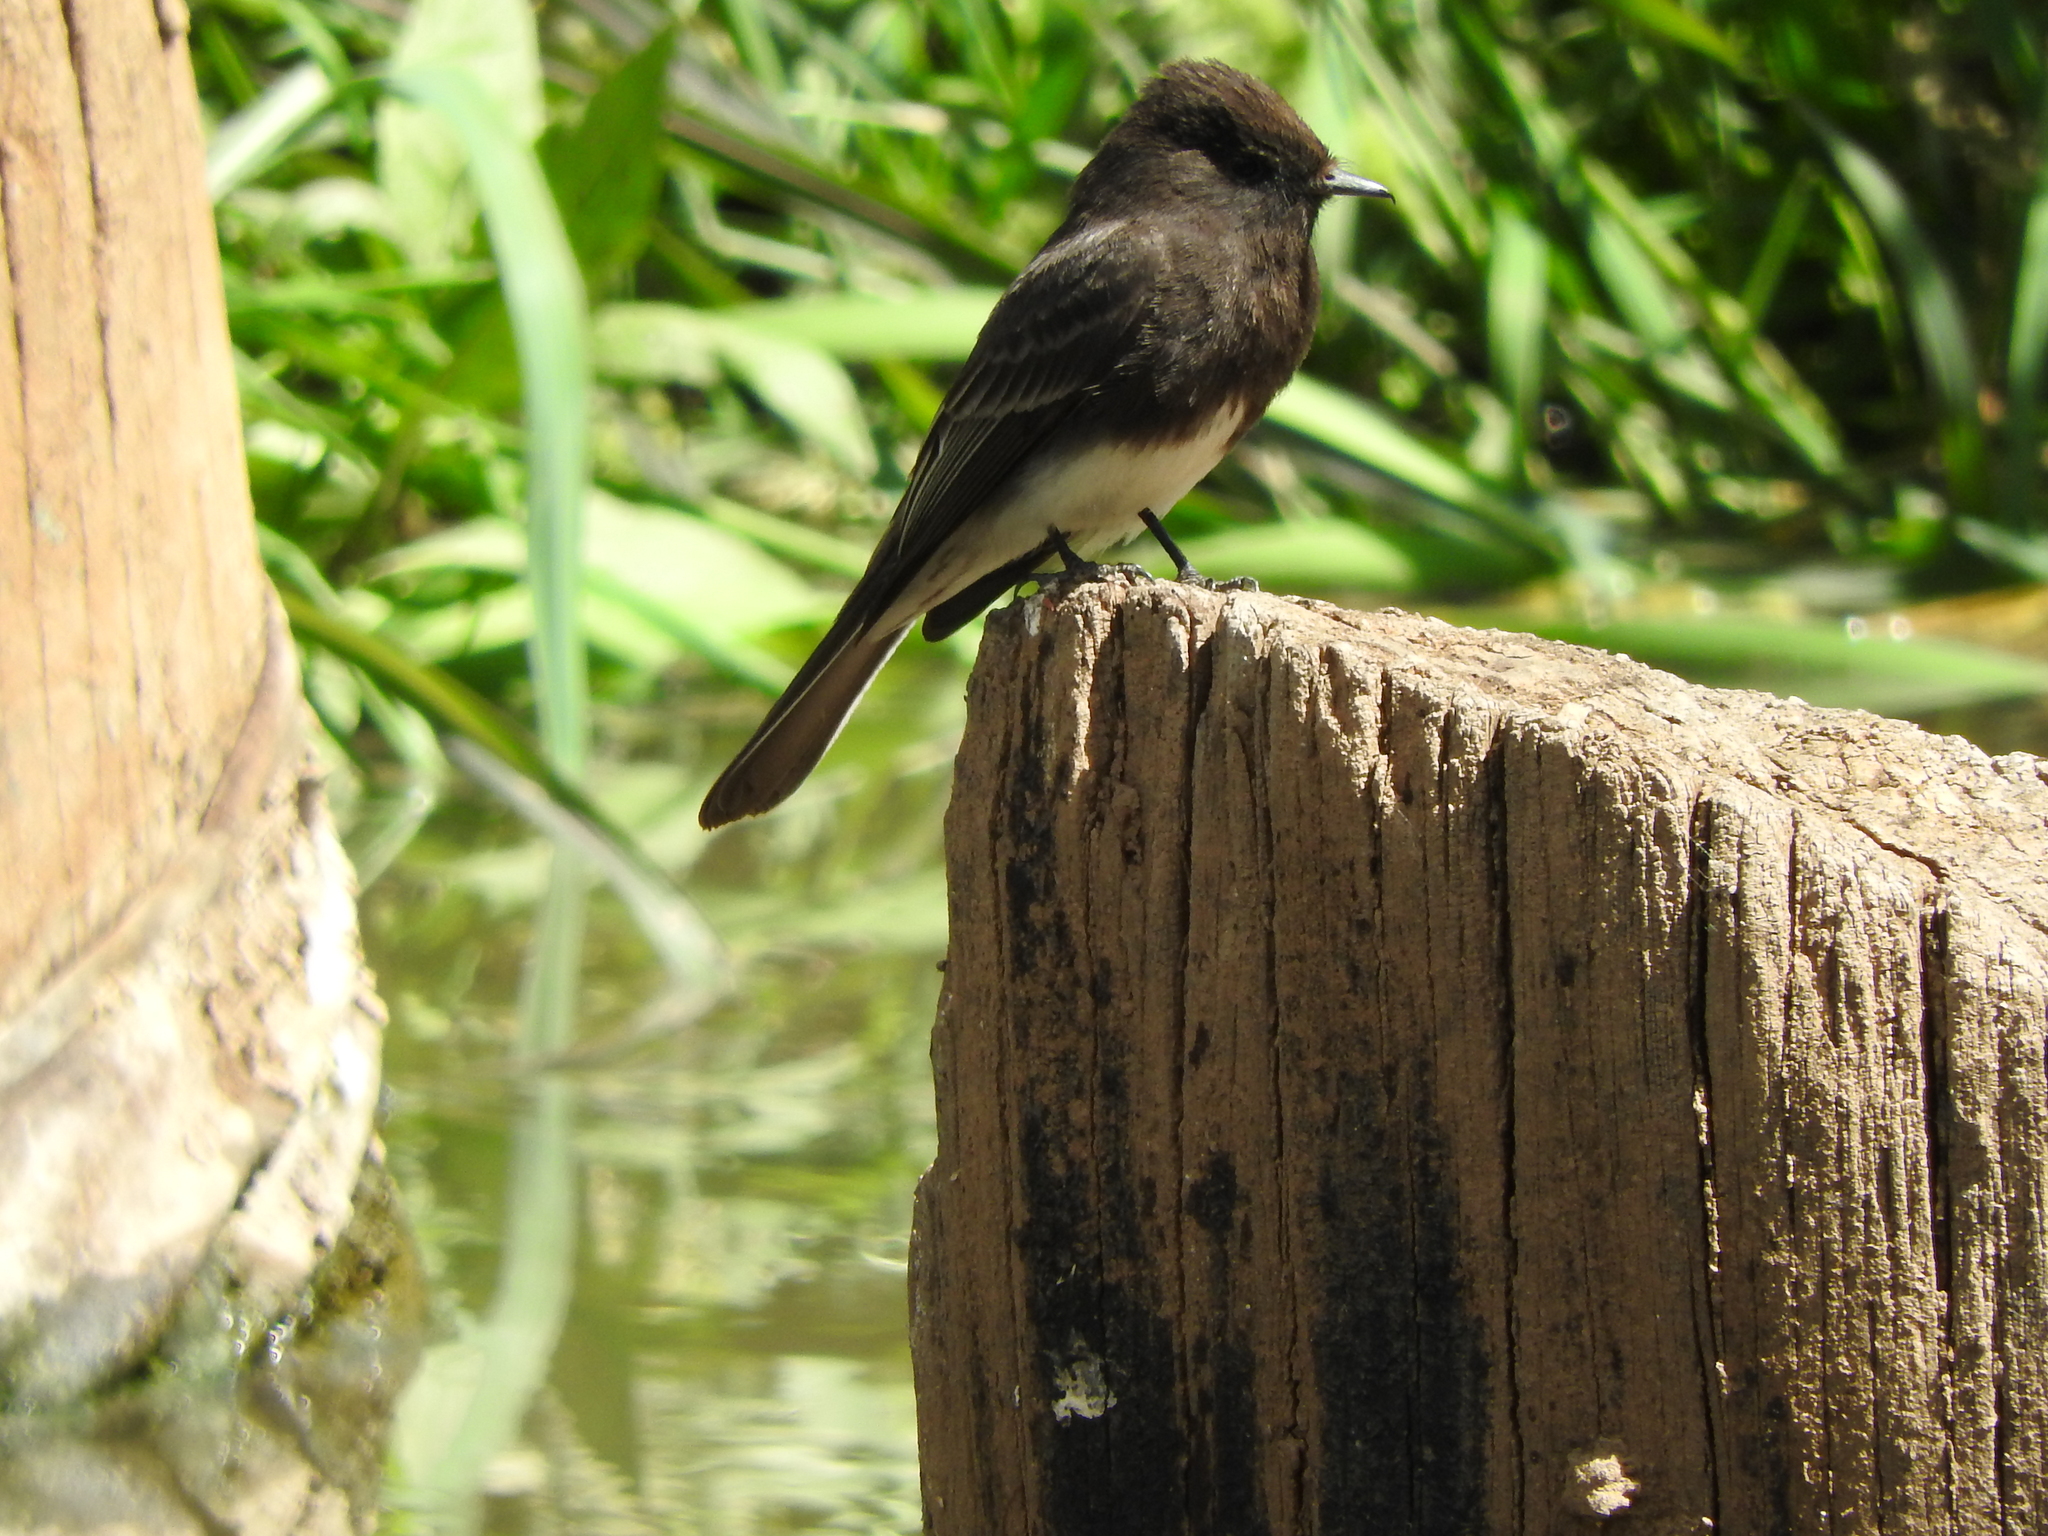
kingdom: Animalia
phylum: Chordata
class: Aves
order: Passeriformes
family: Tyrannidae
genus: Sayornis
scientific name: Sayornis nigricans
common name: Black phoebe
